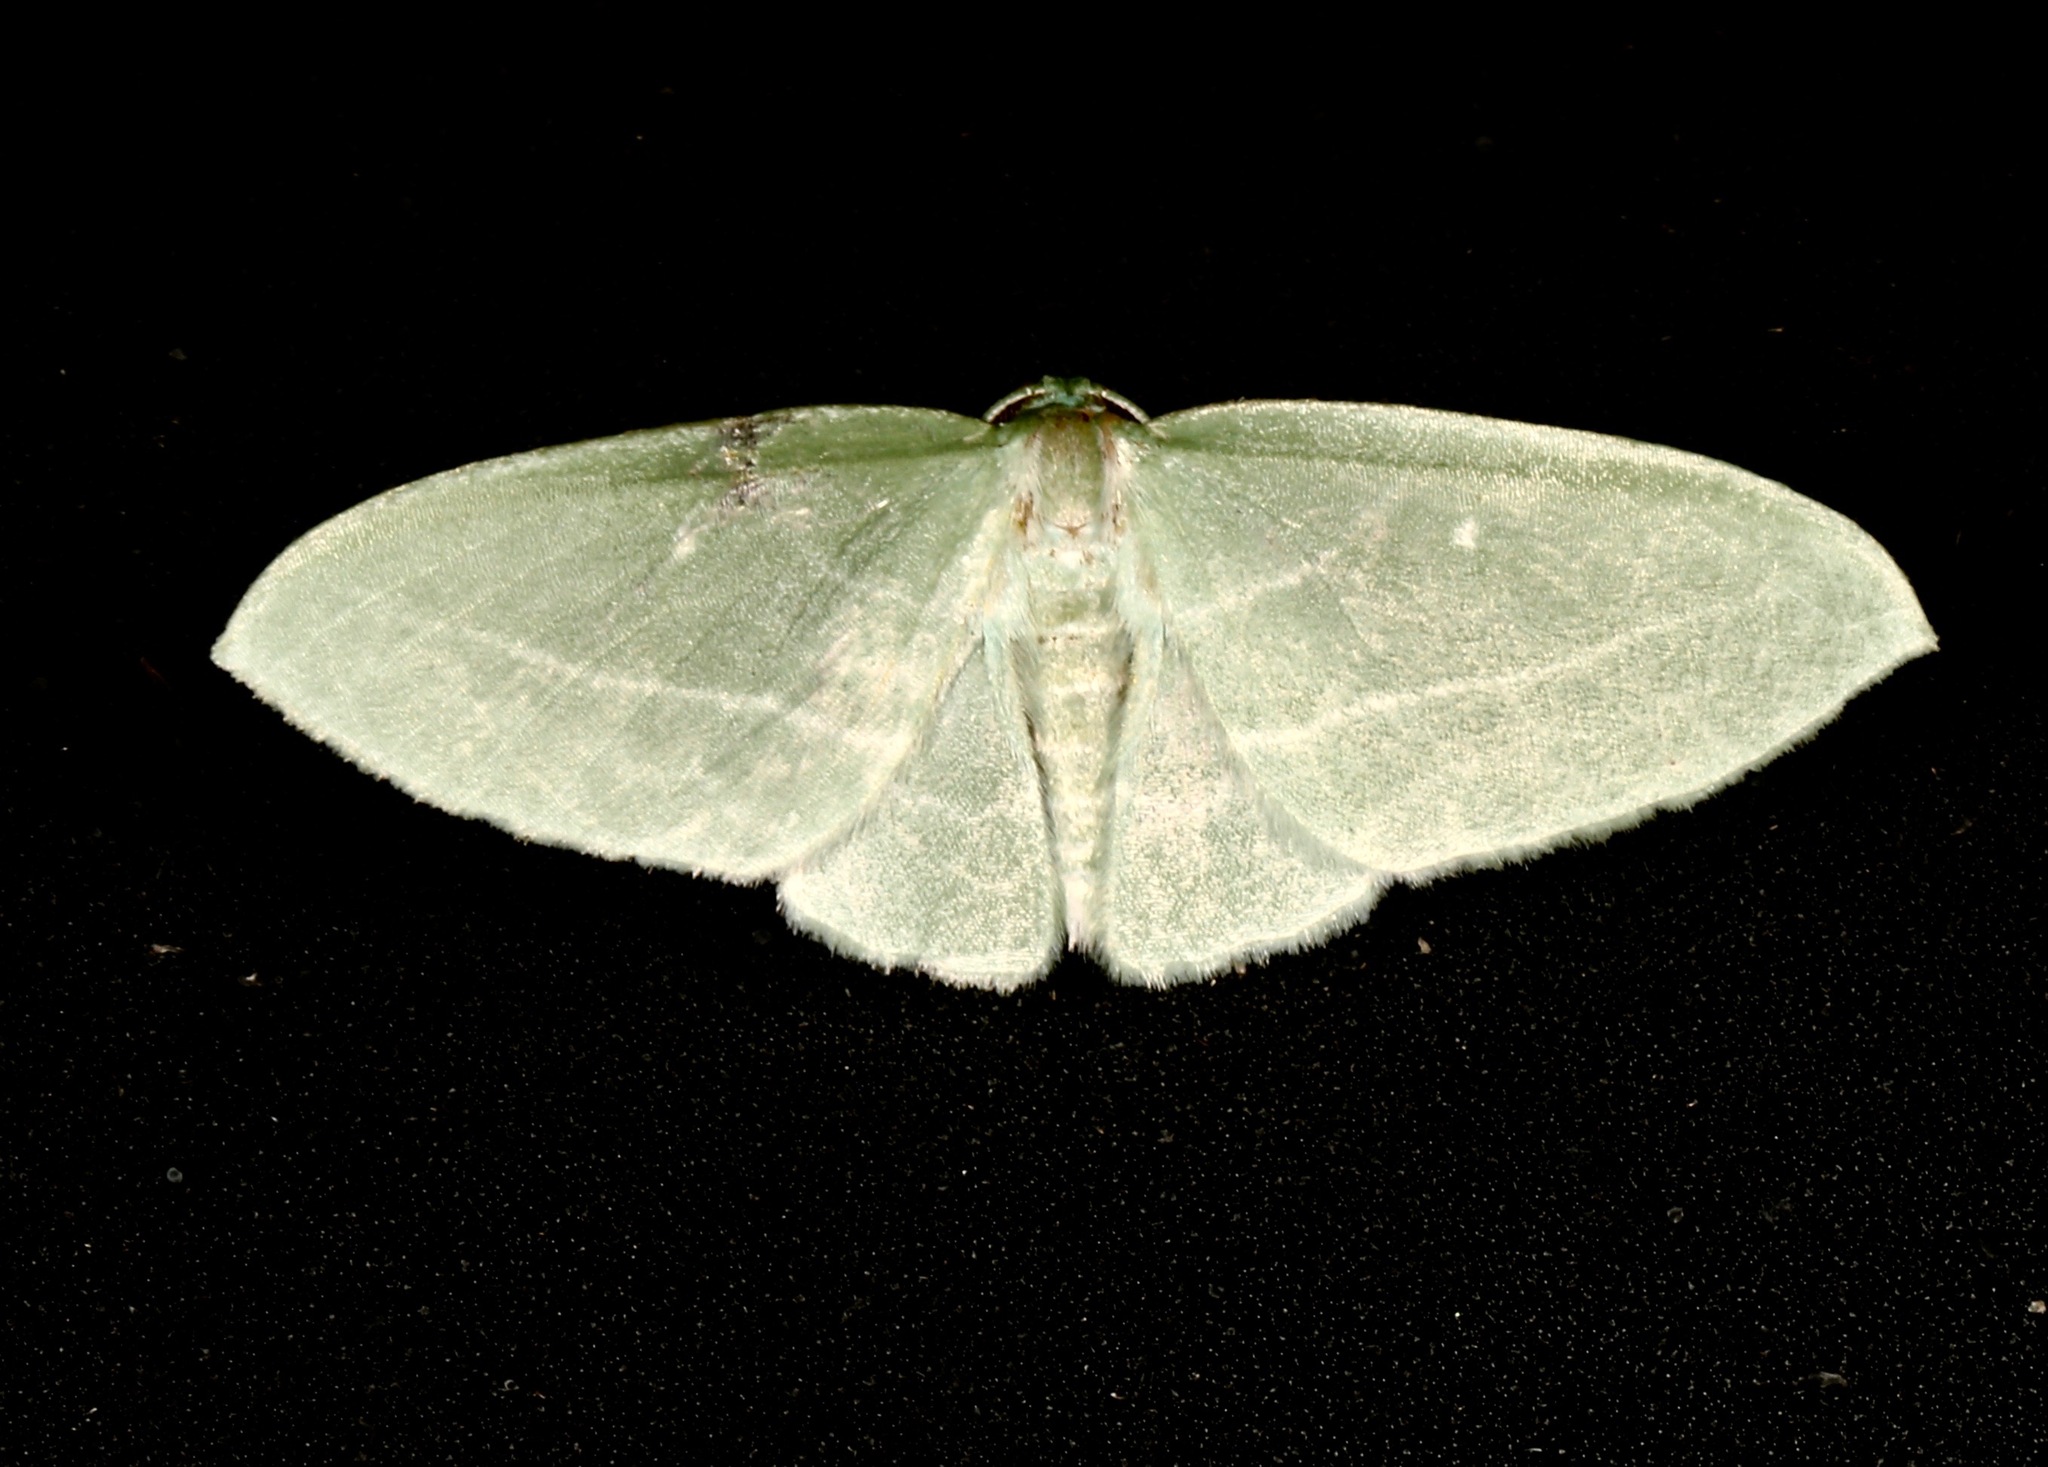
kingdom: Animalia
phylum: Arthropoda
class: Insecta
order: Lepidoptera
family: Geometridae
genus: Dyspteris
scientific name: Dyspteris abortivaria
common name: Bad-wing
